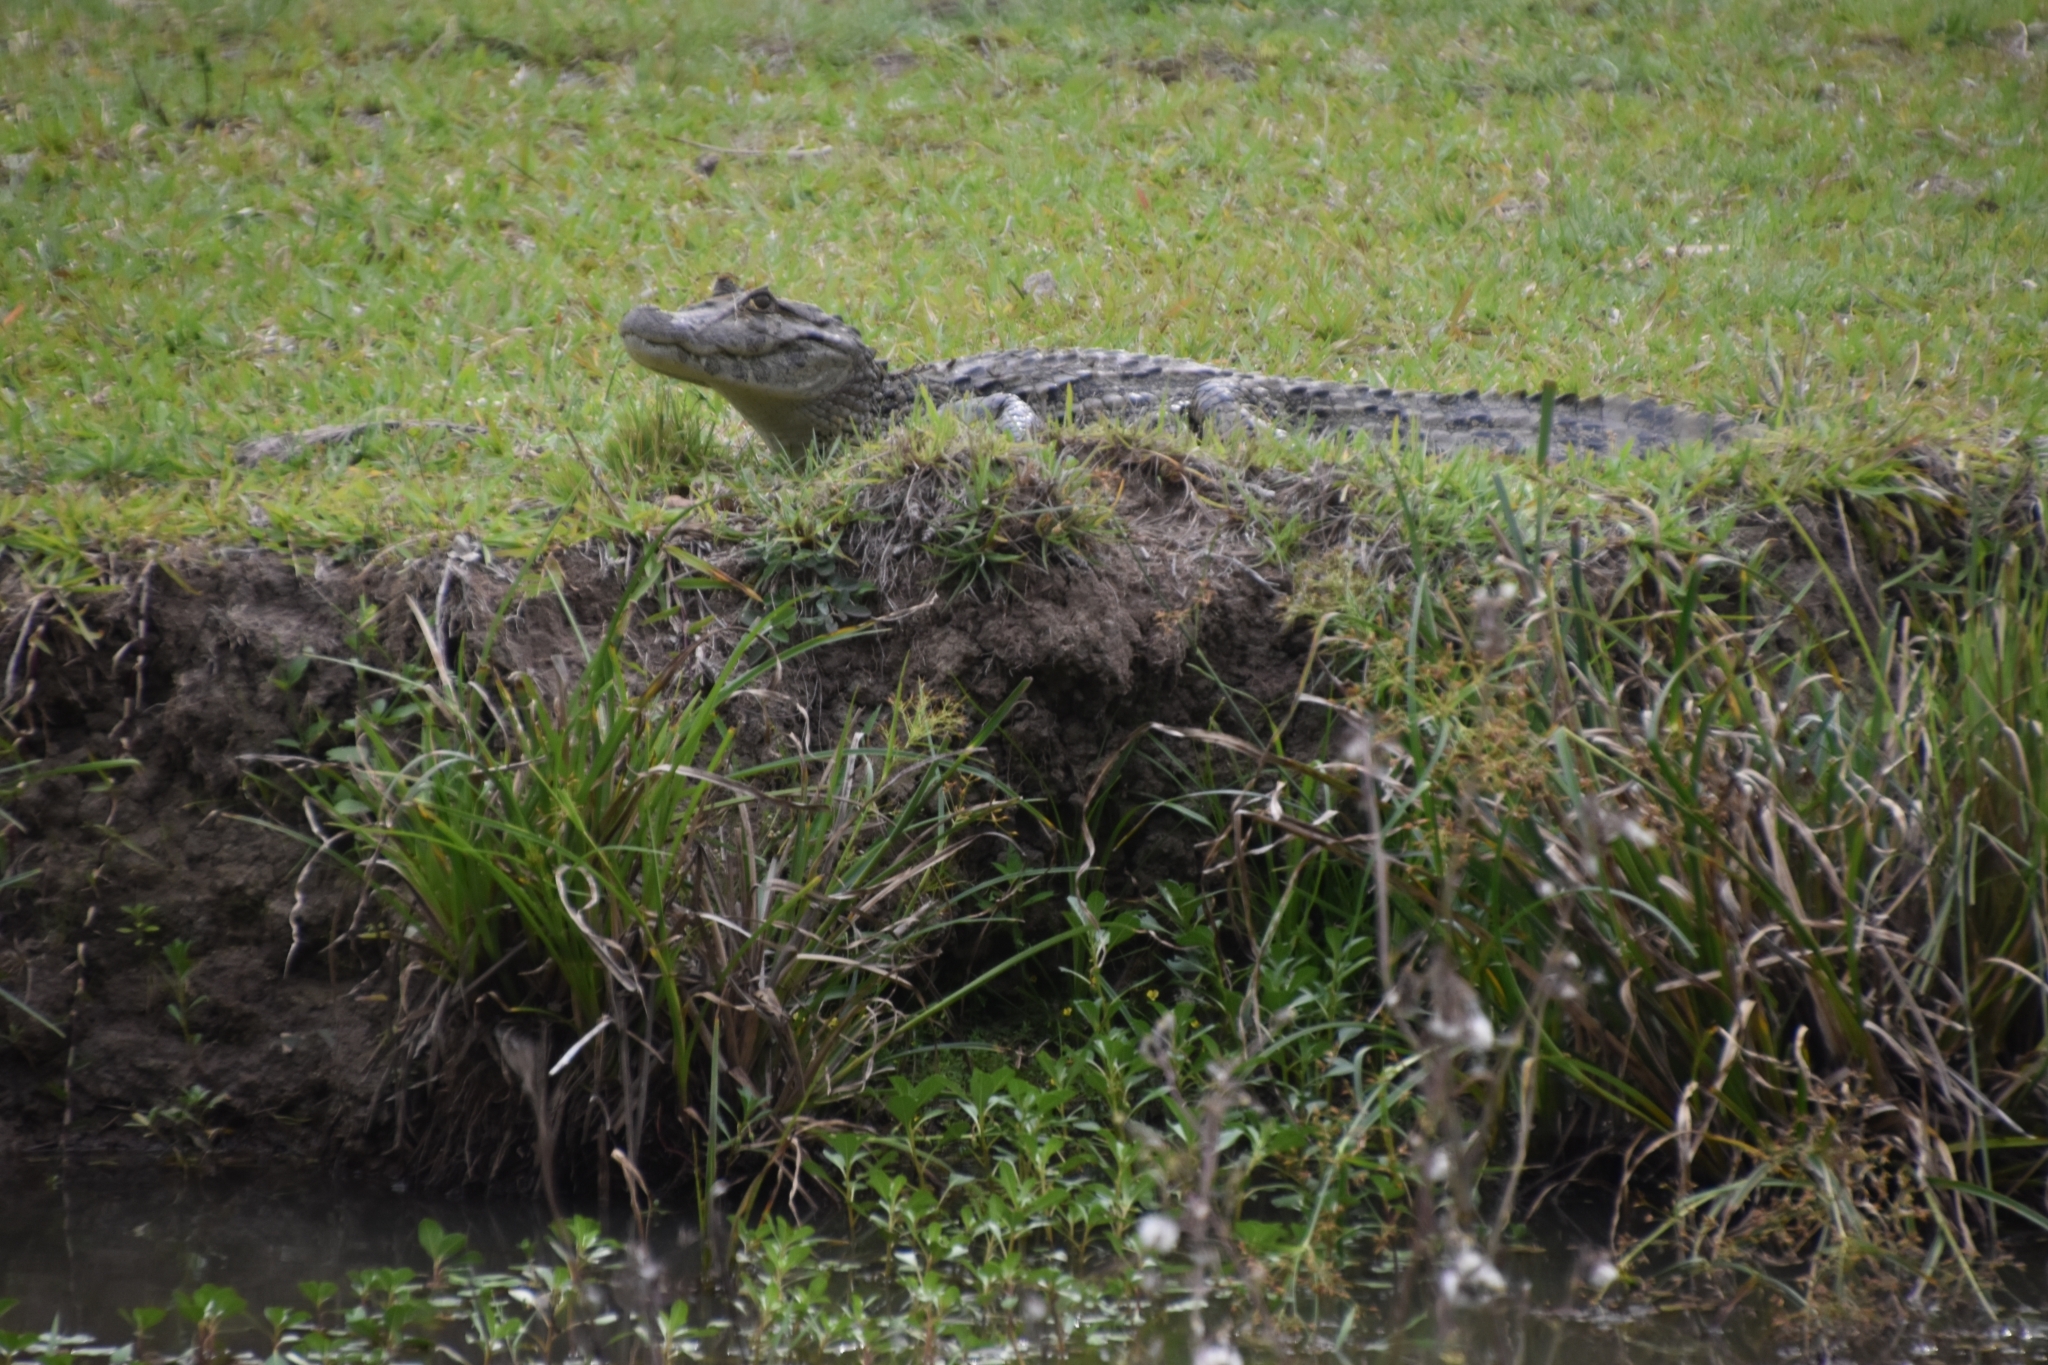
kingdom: Animalia
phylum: Chordata
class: Crocodylia
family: Alligatoridae
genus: Caiman
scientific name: Caiman latirostris
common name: Broad-snouted caiman
